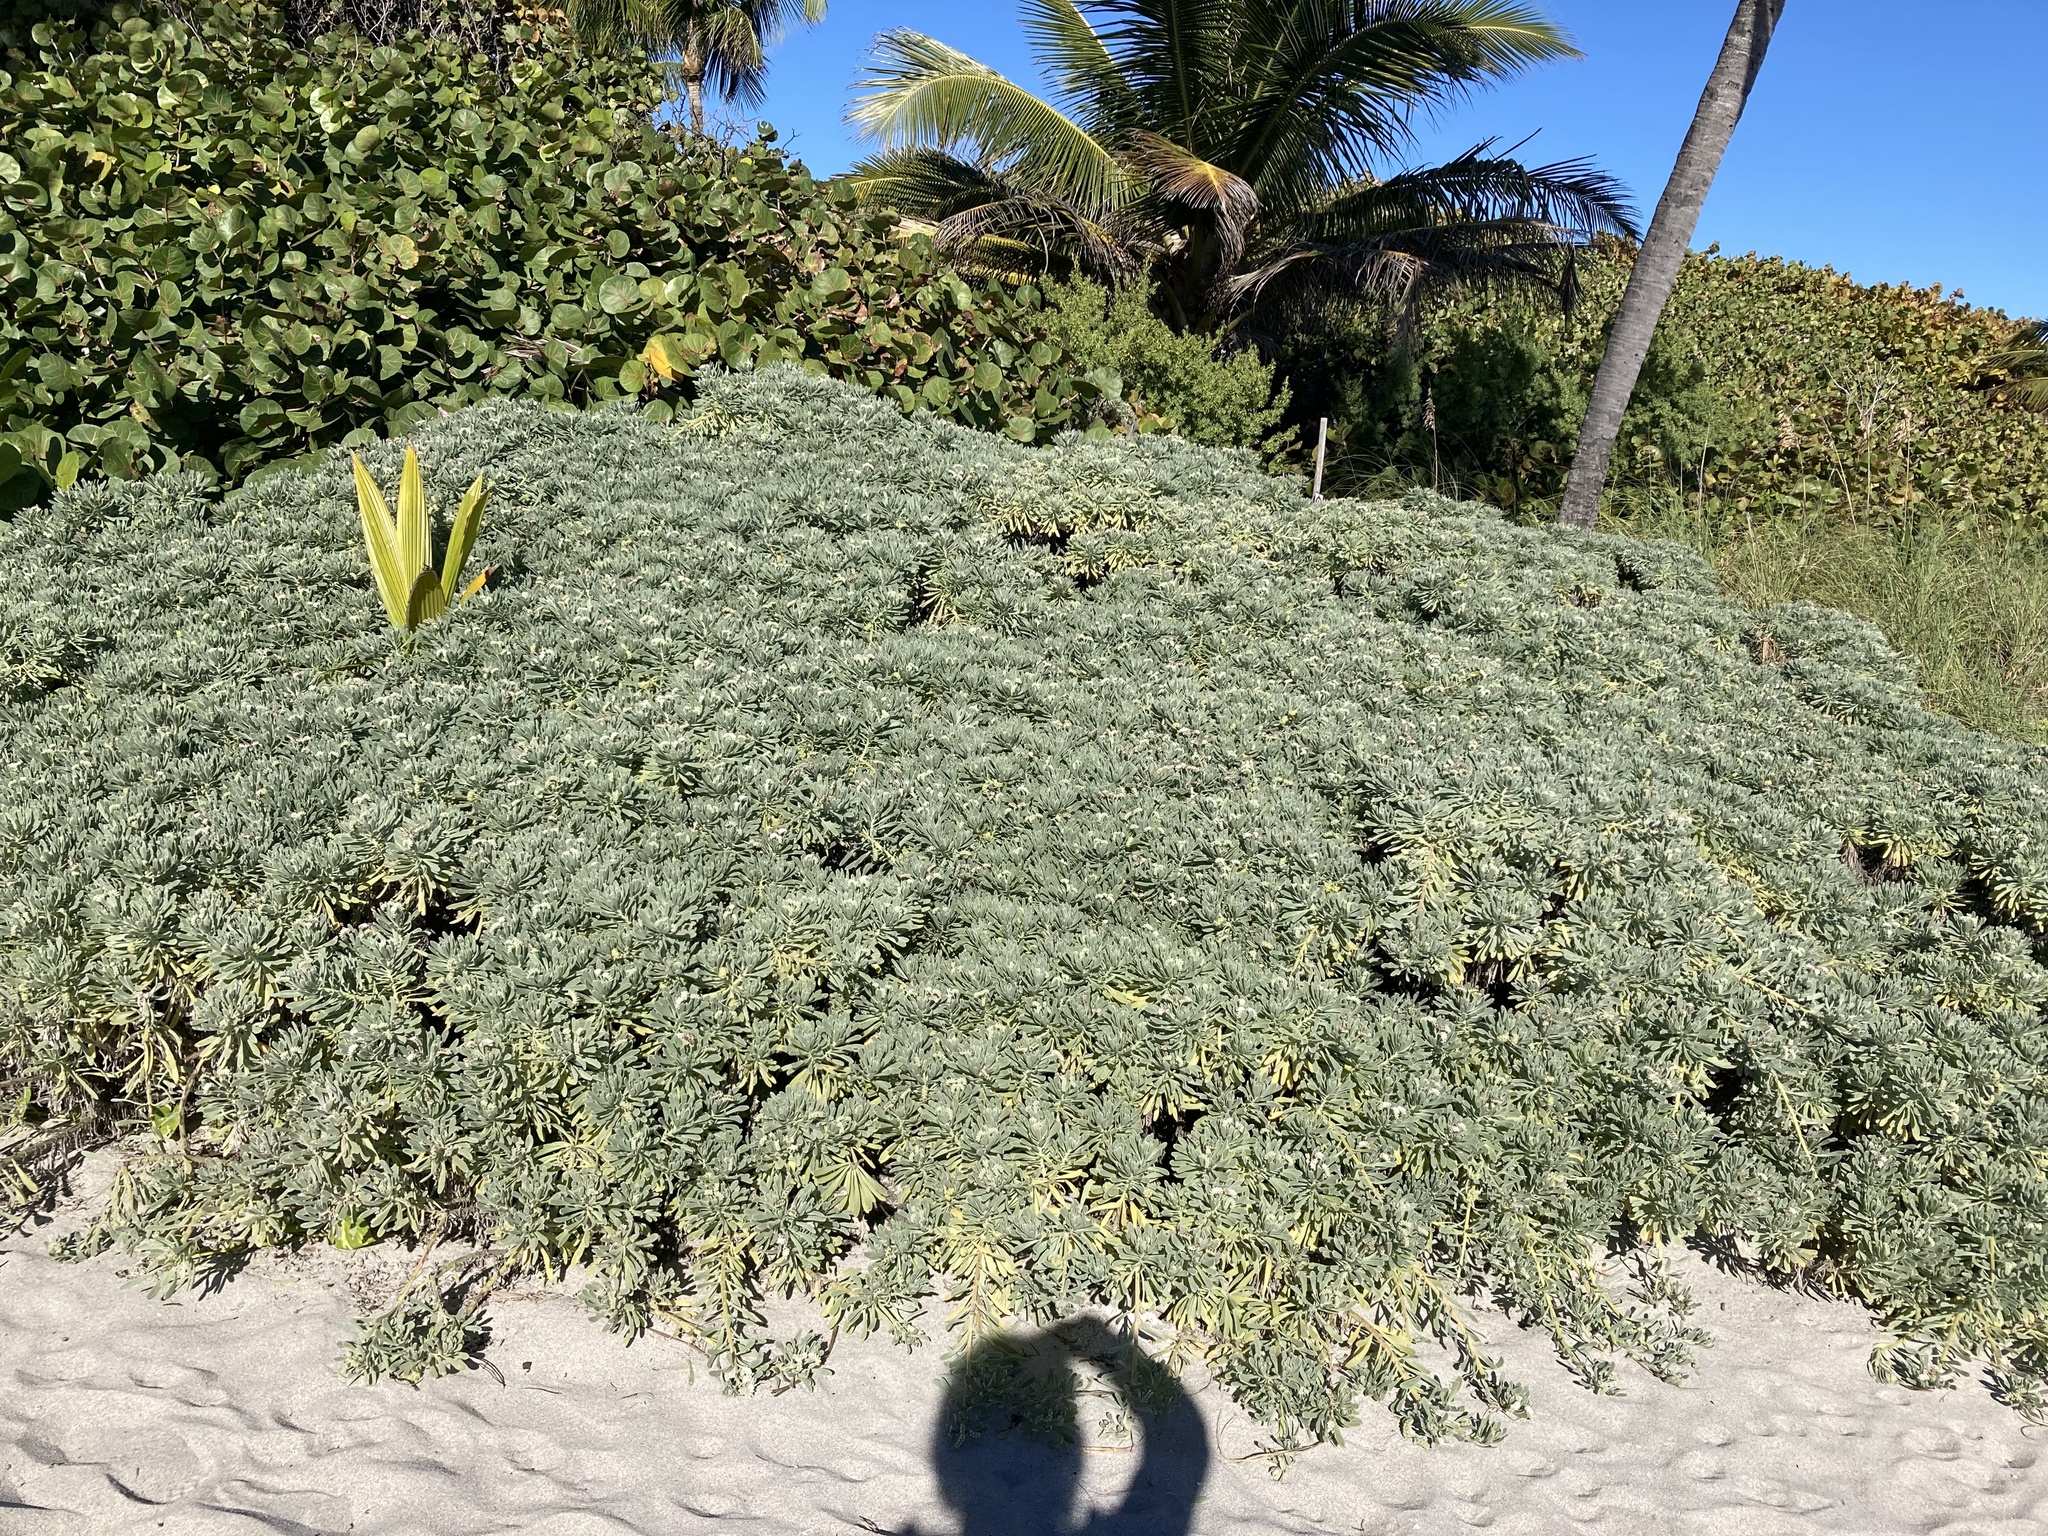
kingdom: Plantae
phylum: Tracheophyta
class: Magnoliopsida
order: Boraginales
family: Heliotropiaceae
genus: Tournefortia
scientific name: Tournefortia gnaphalodes
